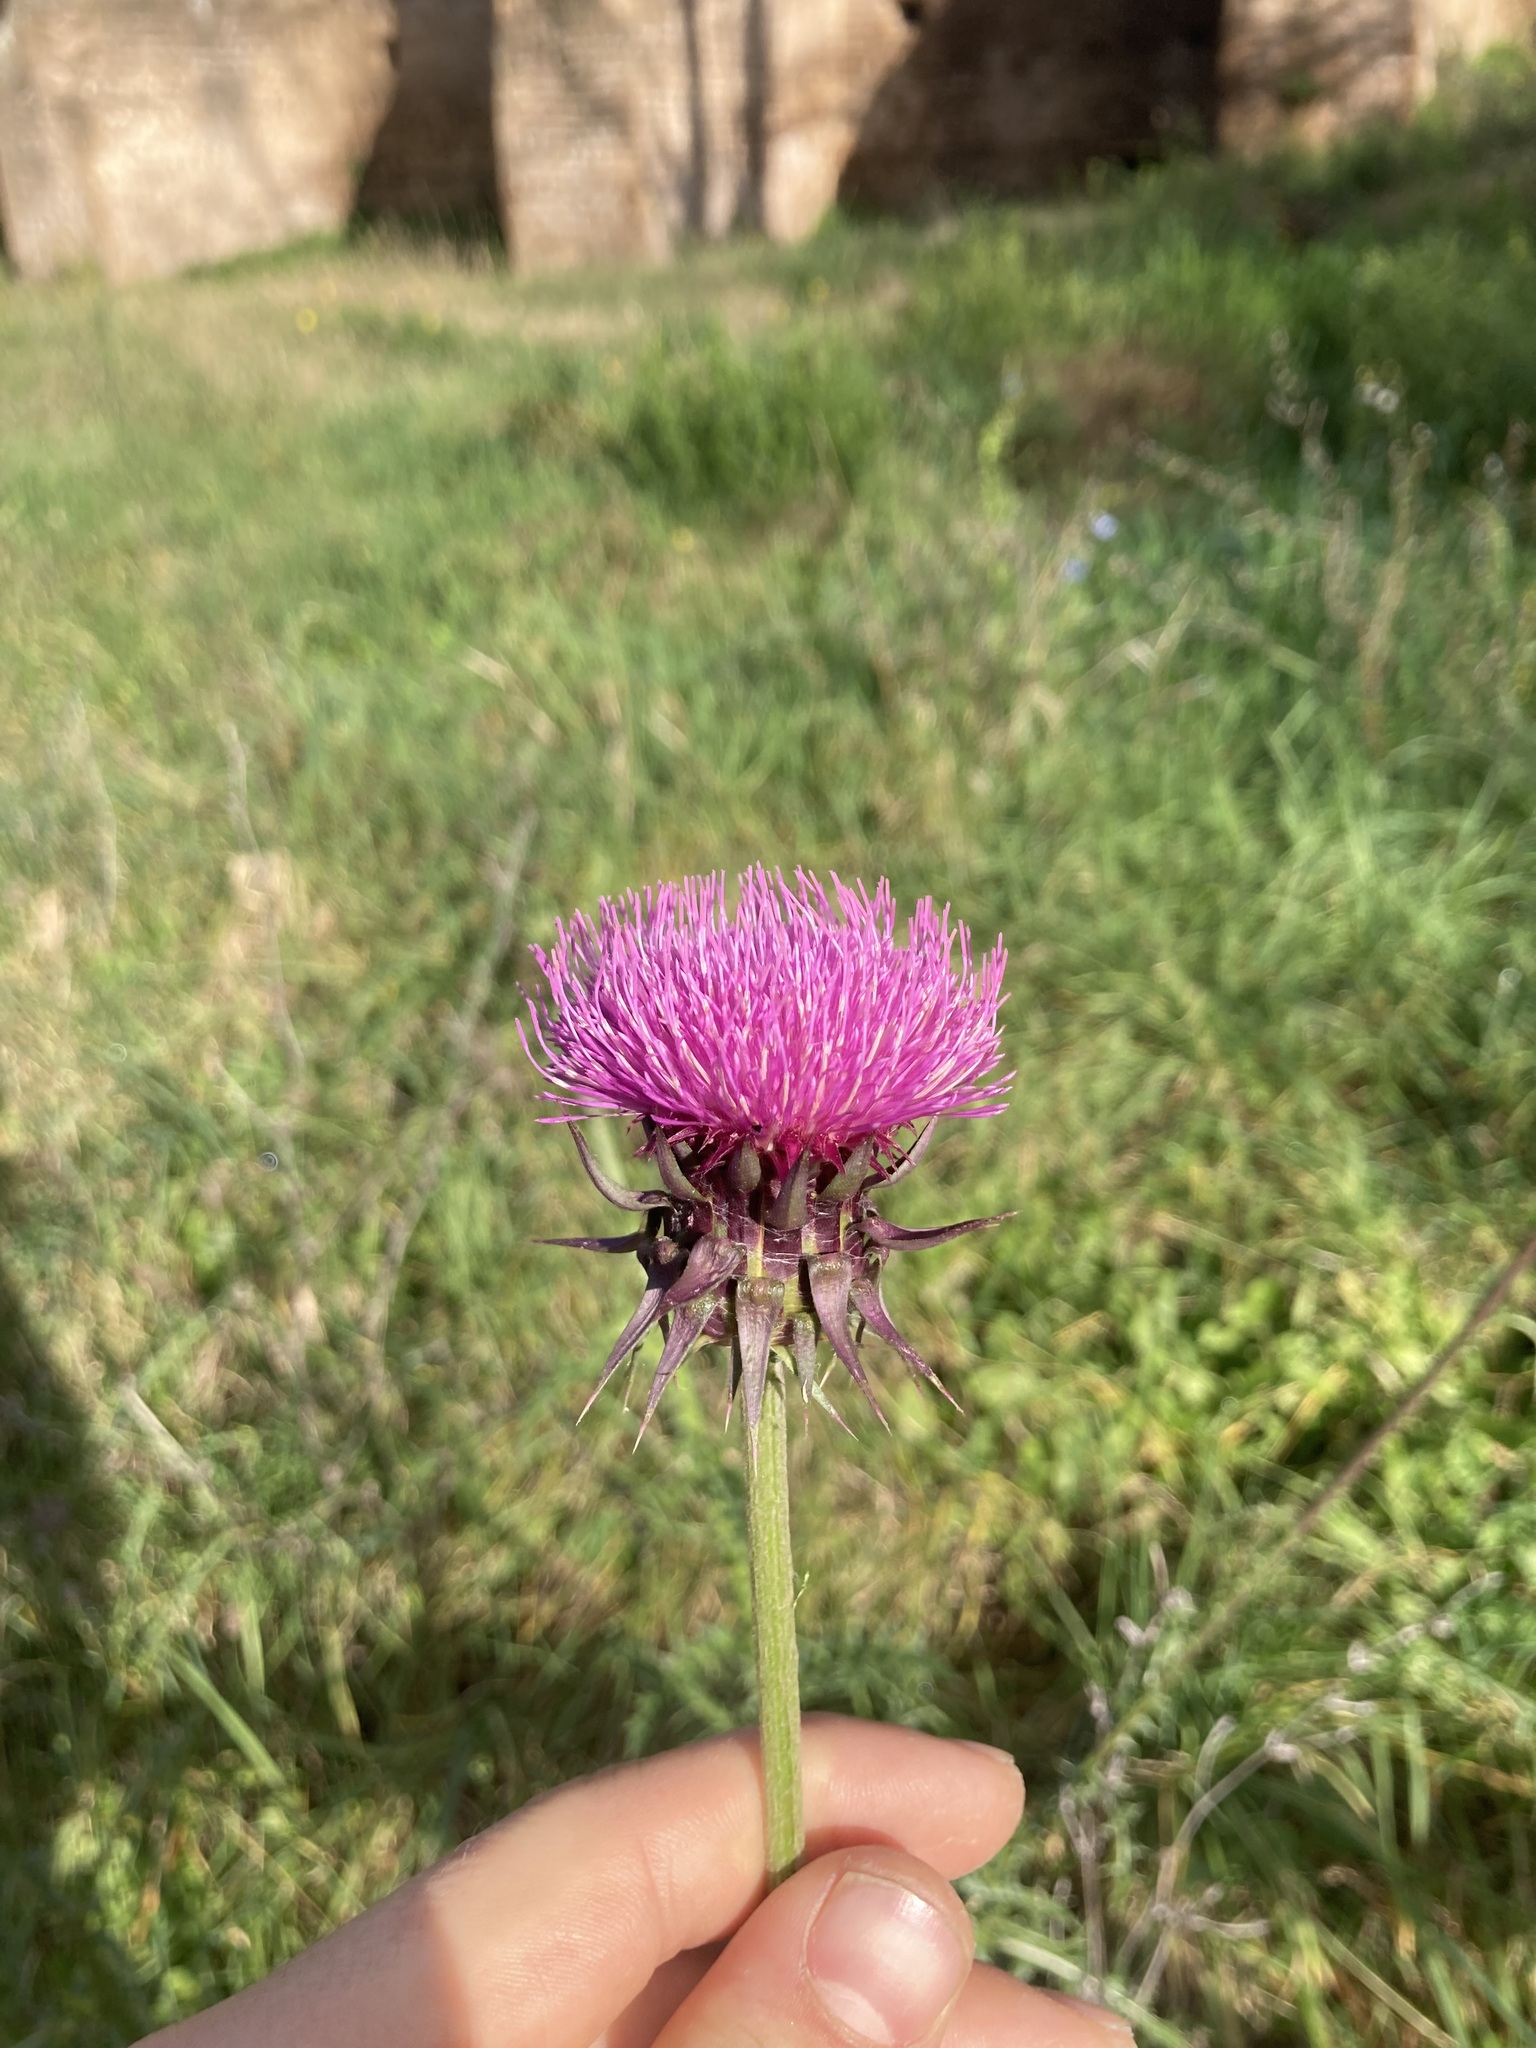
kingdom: Plantae
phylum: Tracheophyta
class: Magnoliopsida
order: Asterales
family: Asteraceae
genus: Carduus
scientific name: Carduus nutans
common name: Musk thistle
